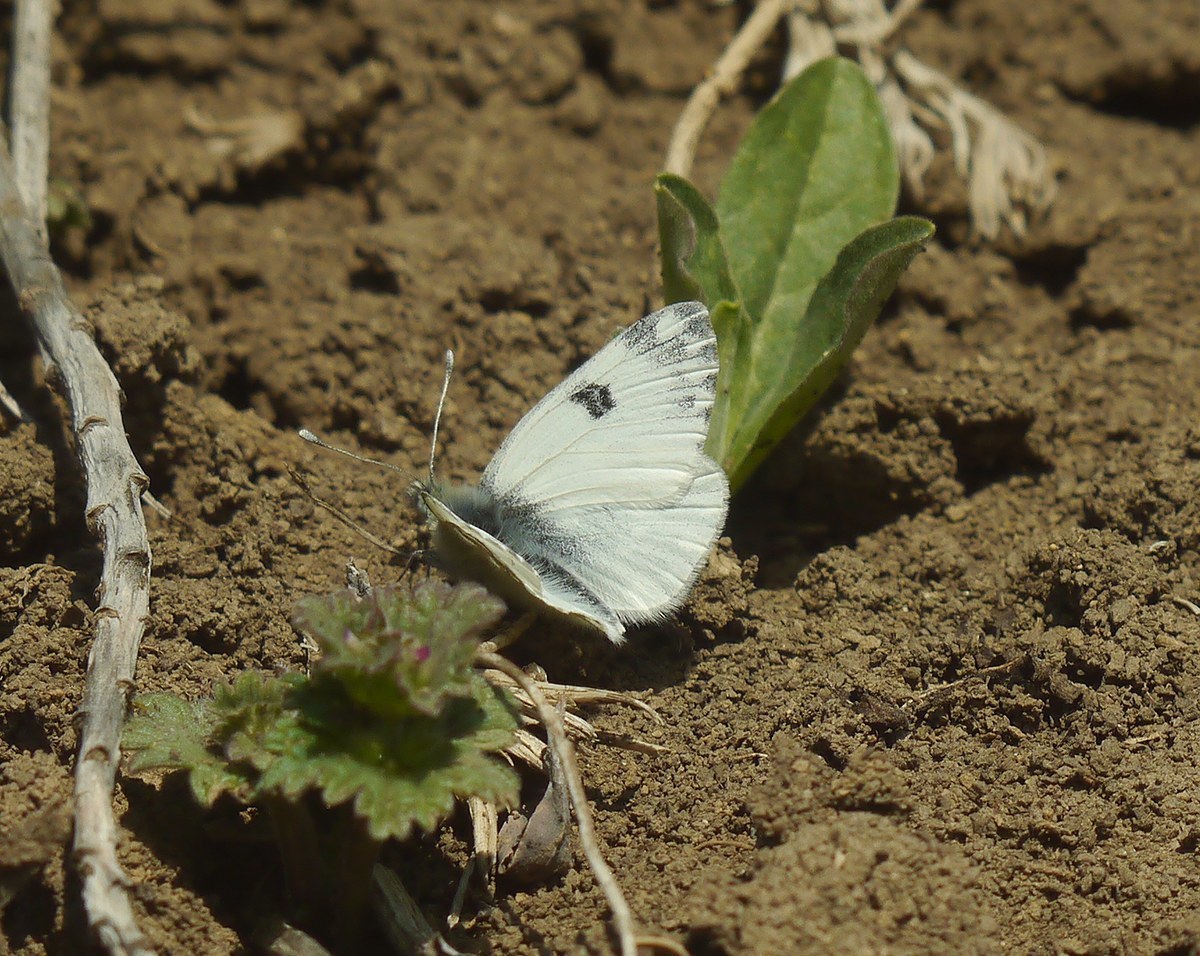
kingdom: Animalia
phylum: Arthropoda
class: Insecta
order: Lepidoptera
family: Pieridae
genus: Pontia
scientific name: Pontia edusa
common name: Eastern bath white
